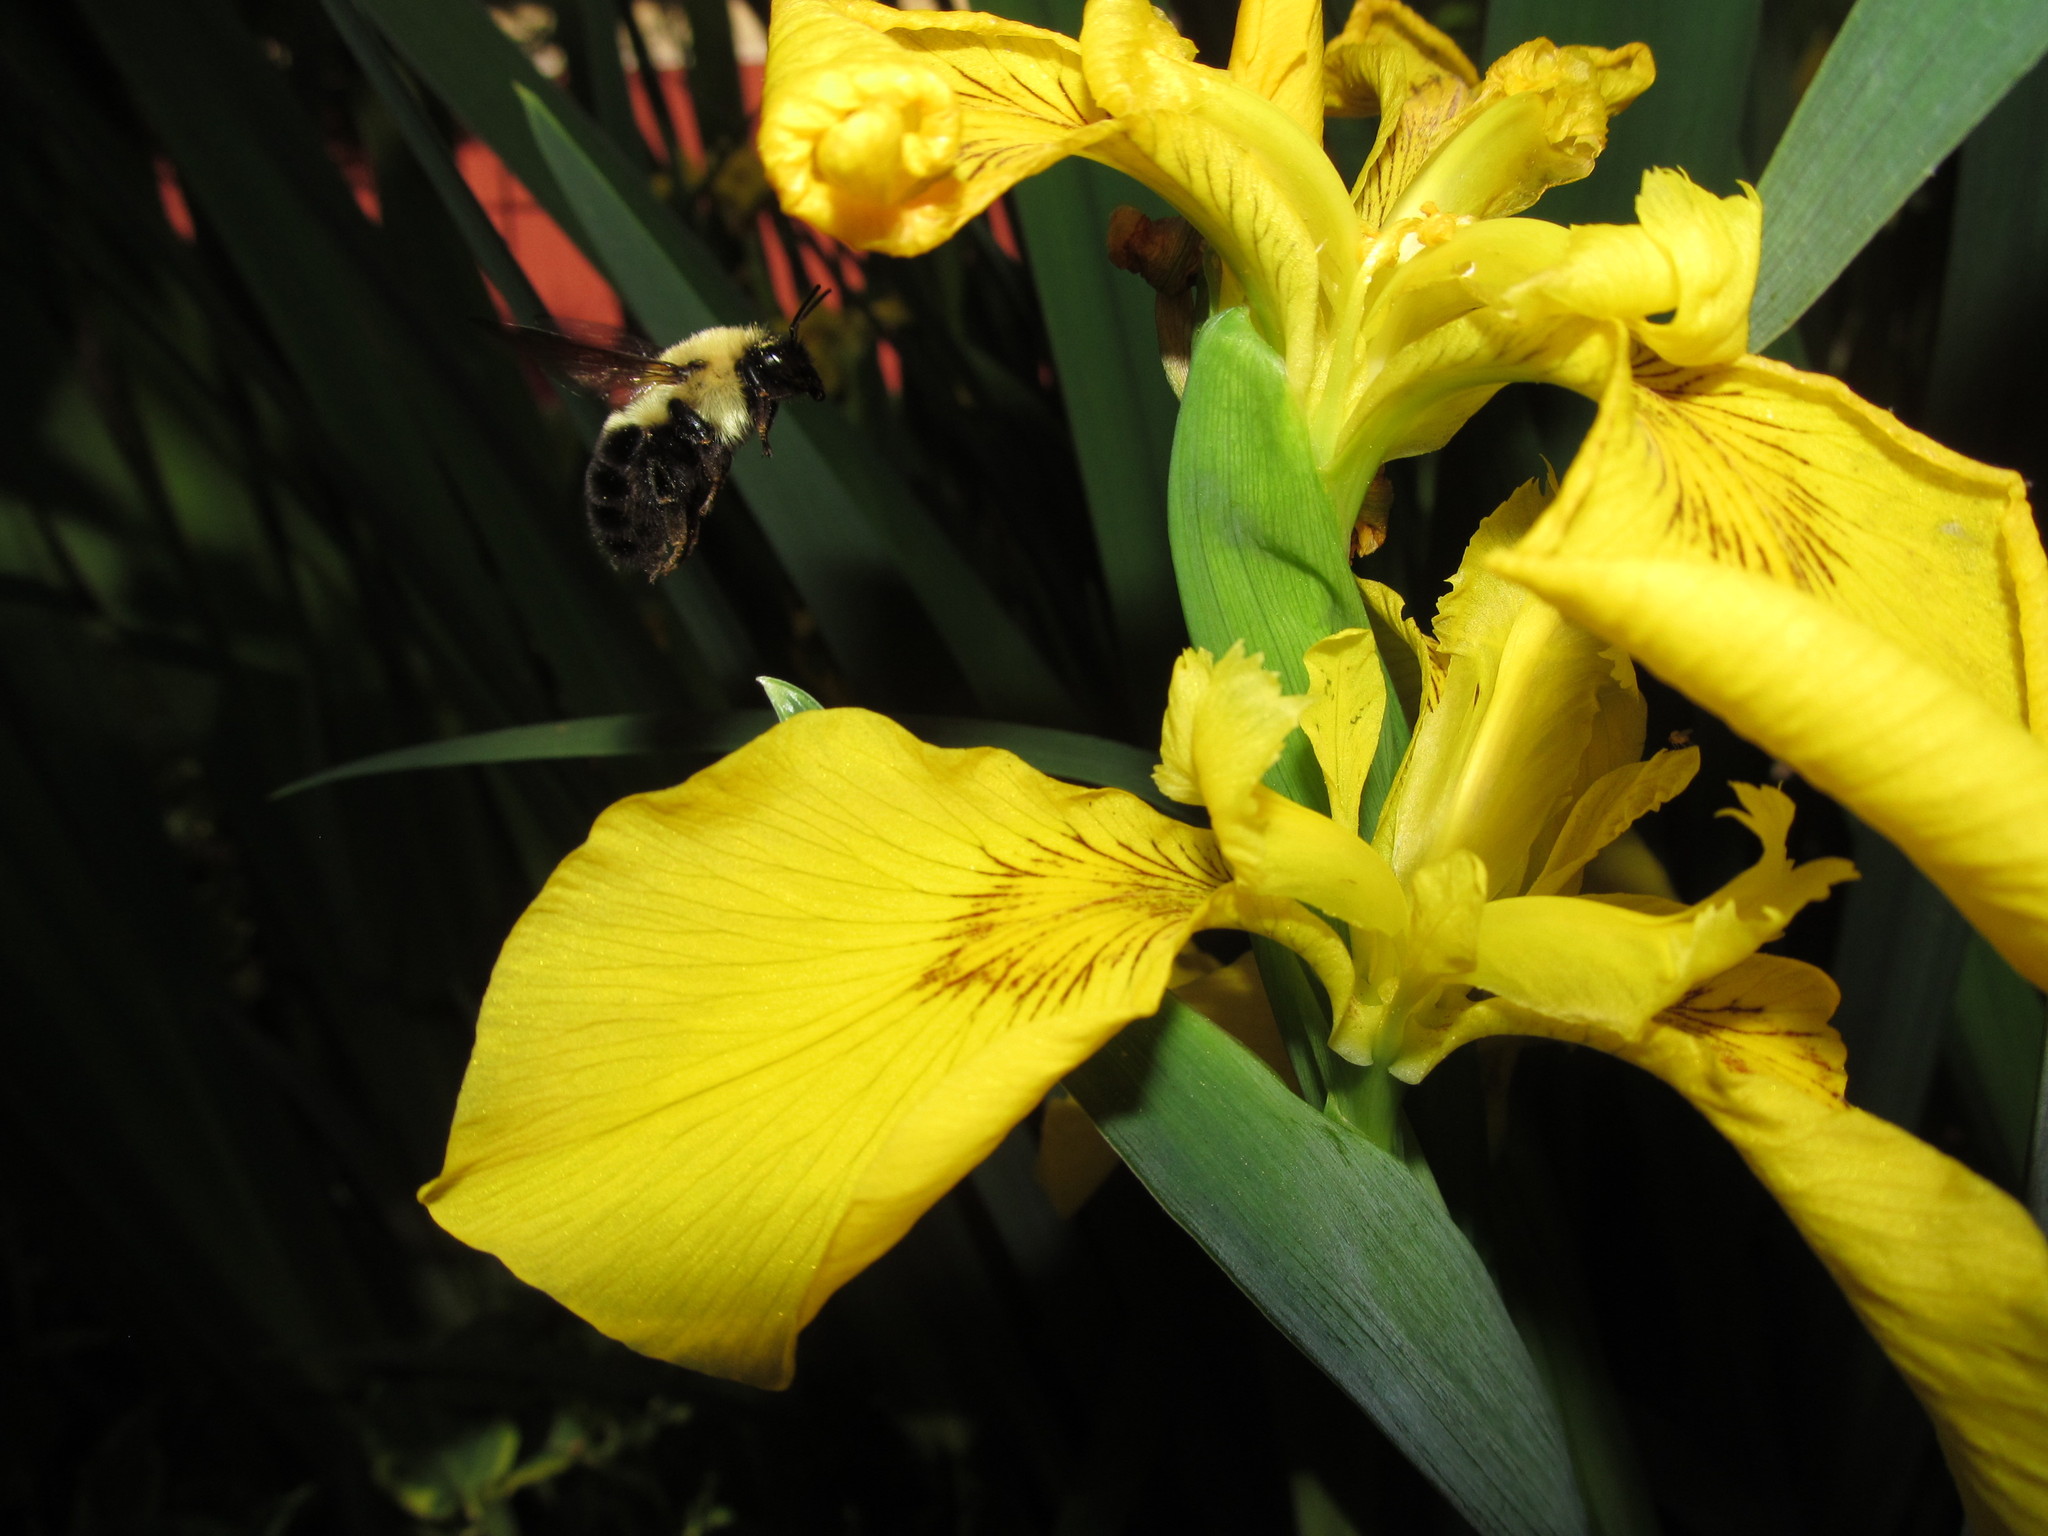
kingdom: Animalia
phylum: Arthropoda
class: Insecta
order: Hymenoptera
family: Apidae
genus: Bombus
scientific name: Bombus bimaculatus
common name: Two-spotted bumble bee
